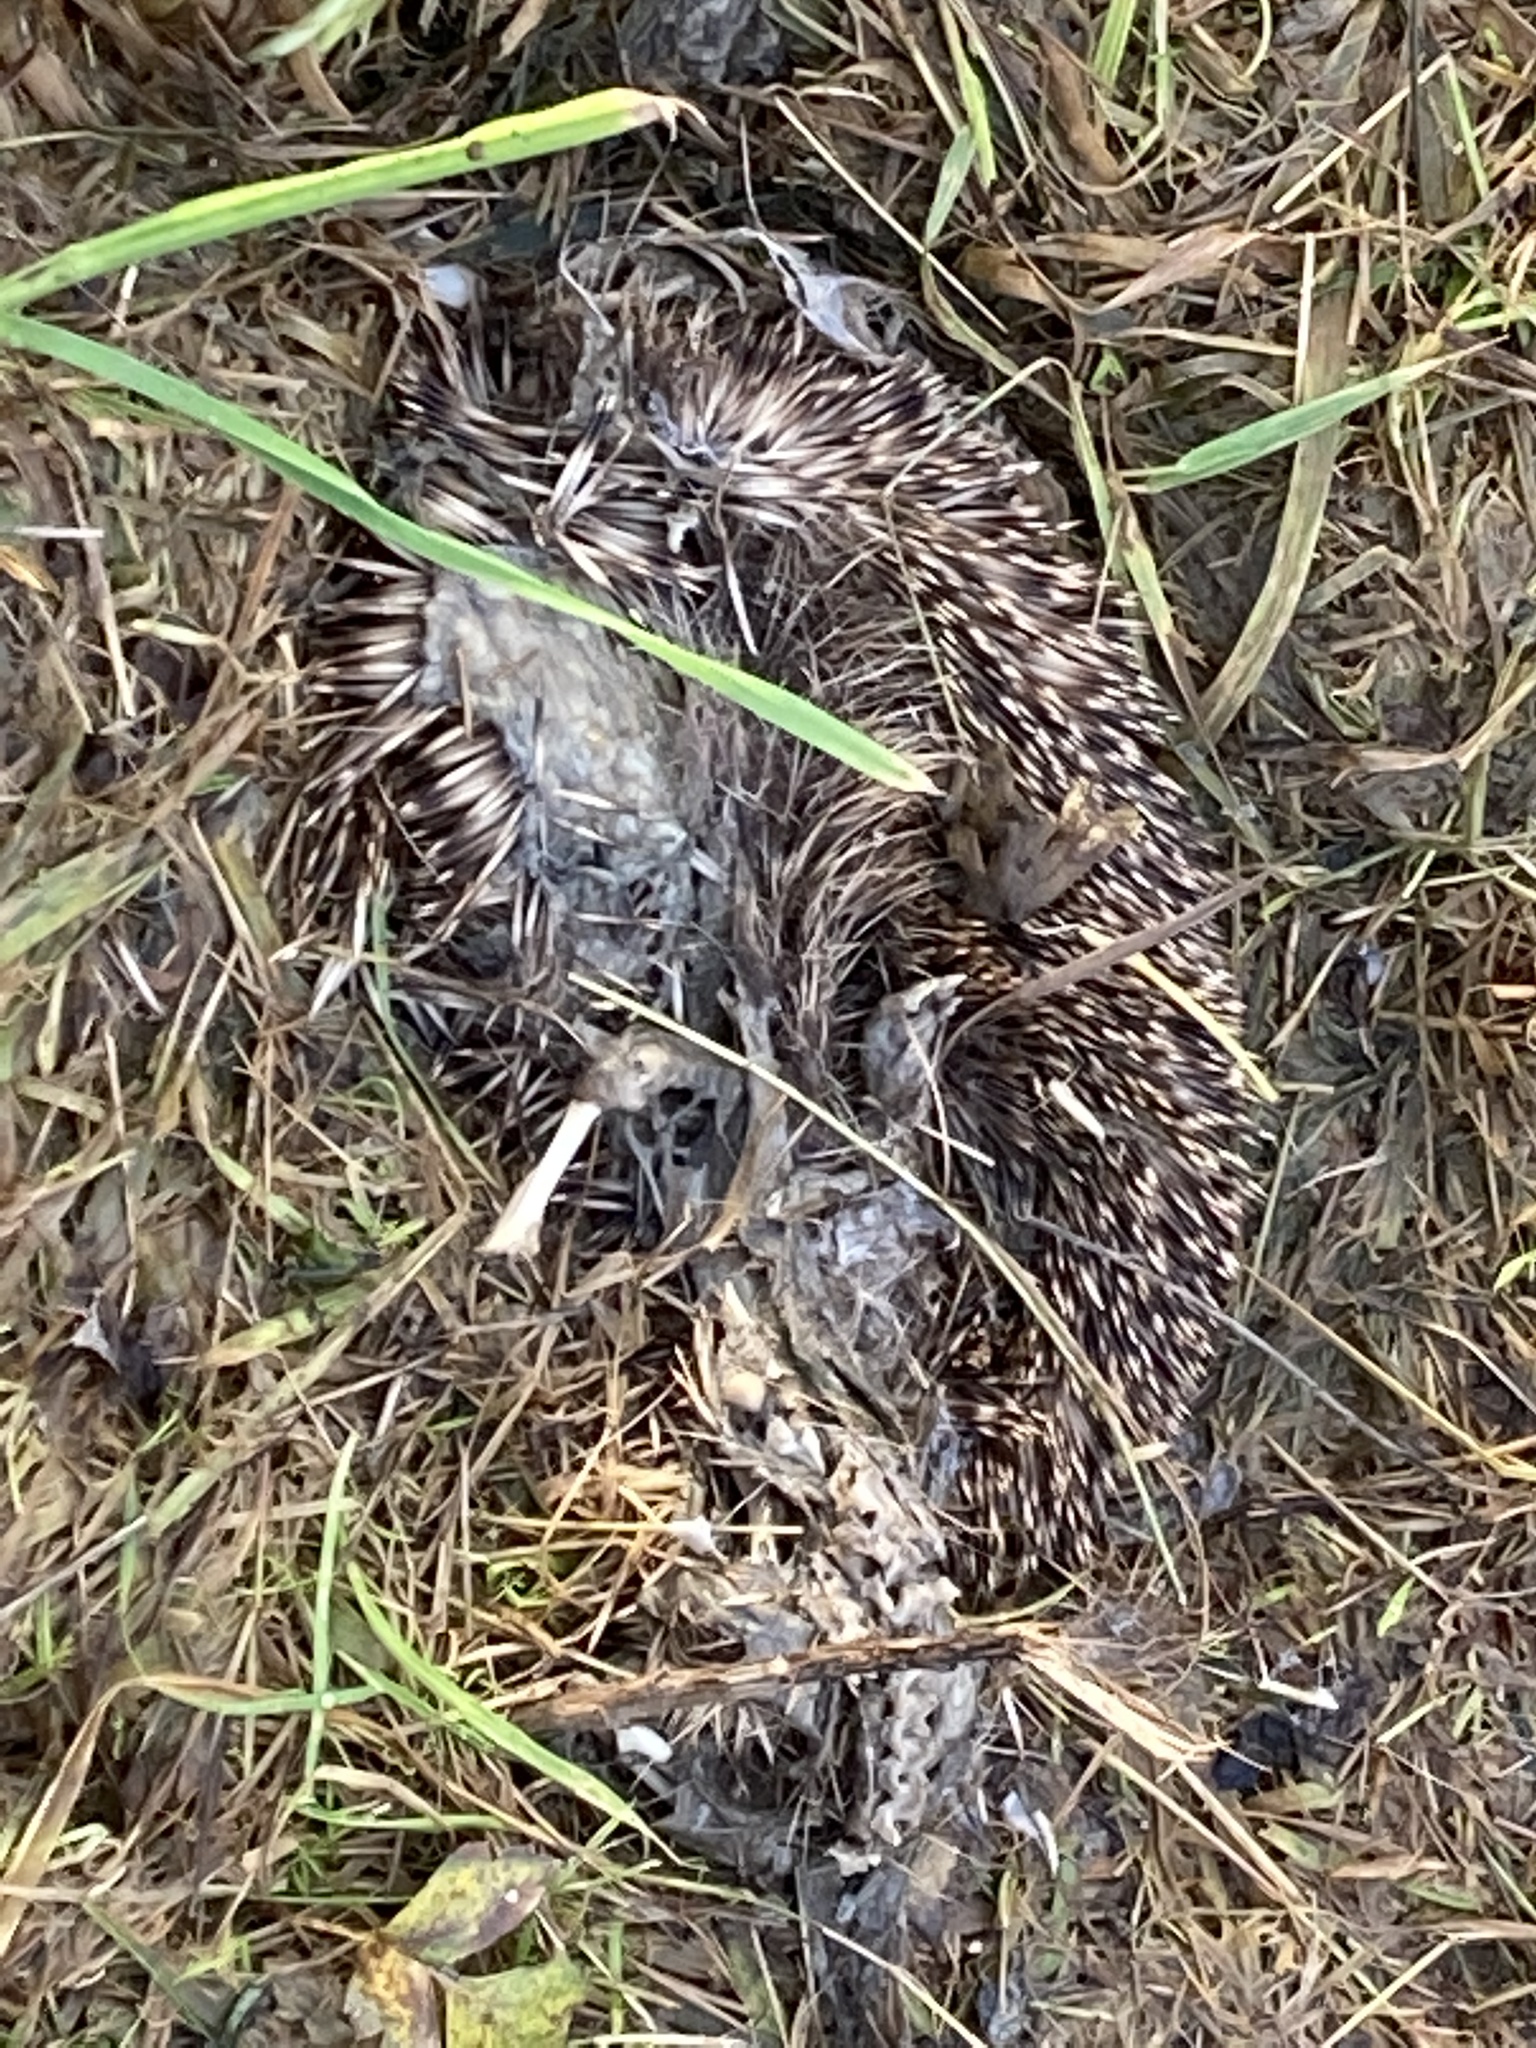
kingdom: Animalia
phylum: Chordata
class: Mammalia
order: Erinaceomorpha
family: Erinaceidae
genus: Erinaceus
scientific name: Erinaceus europaeus
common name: West european hedgehog
